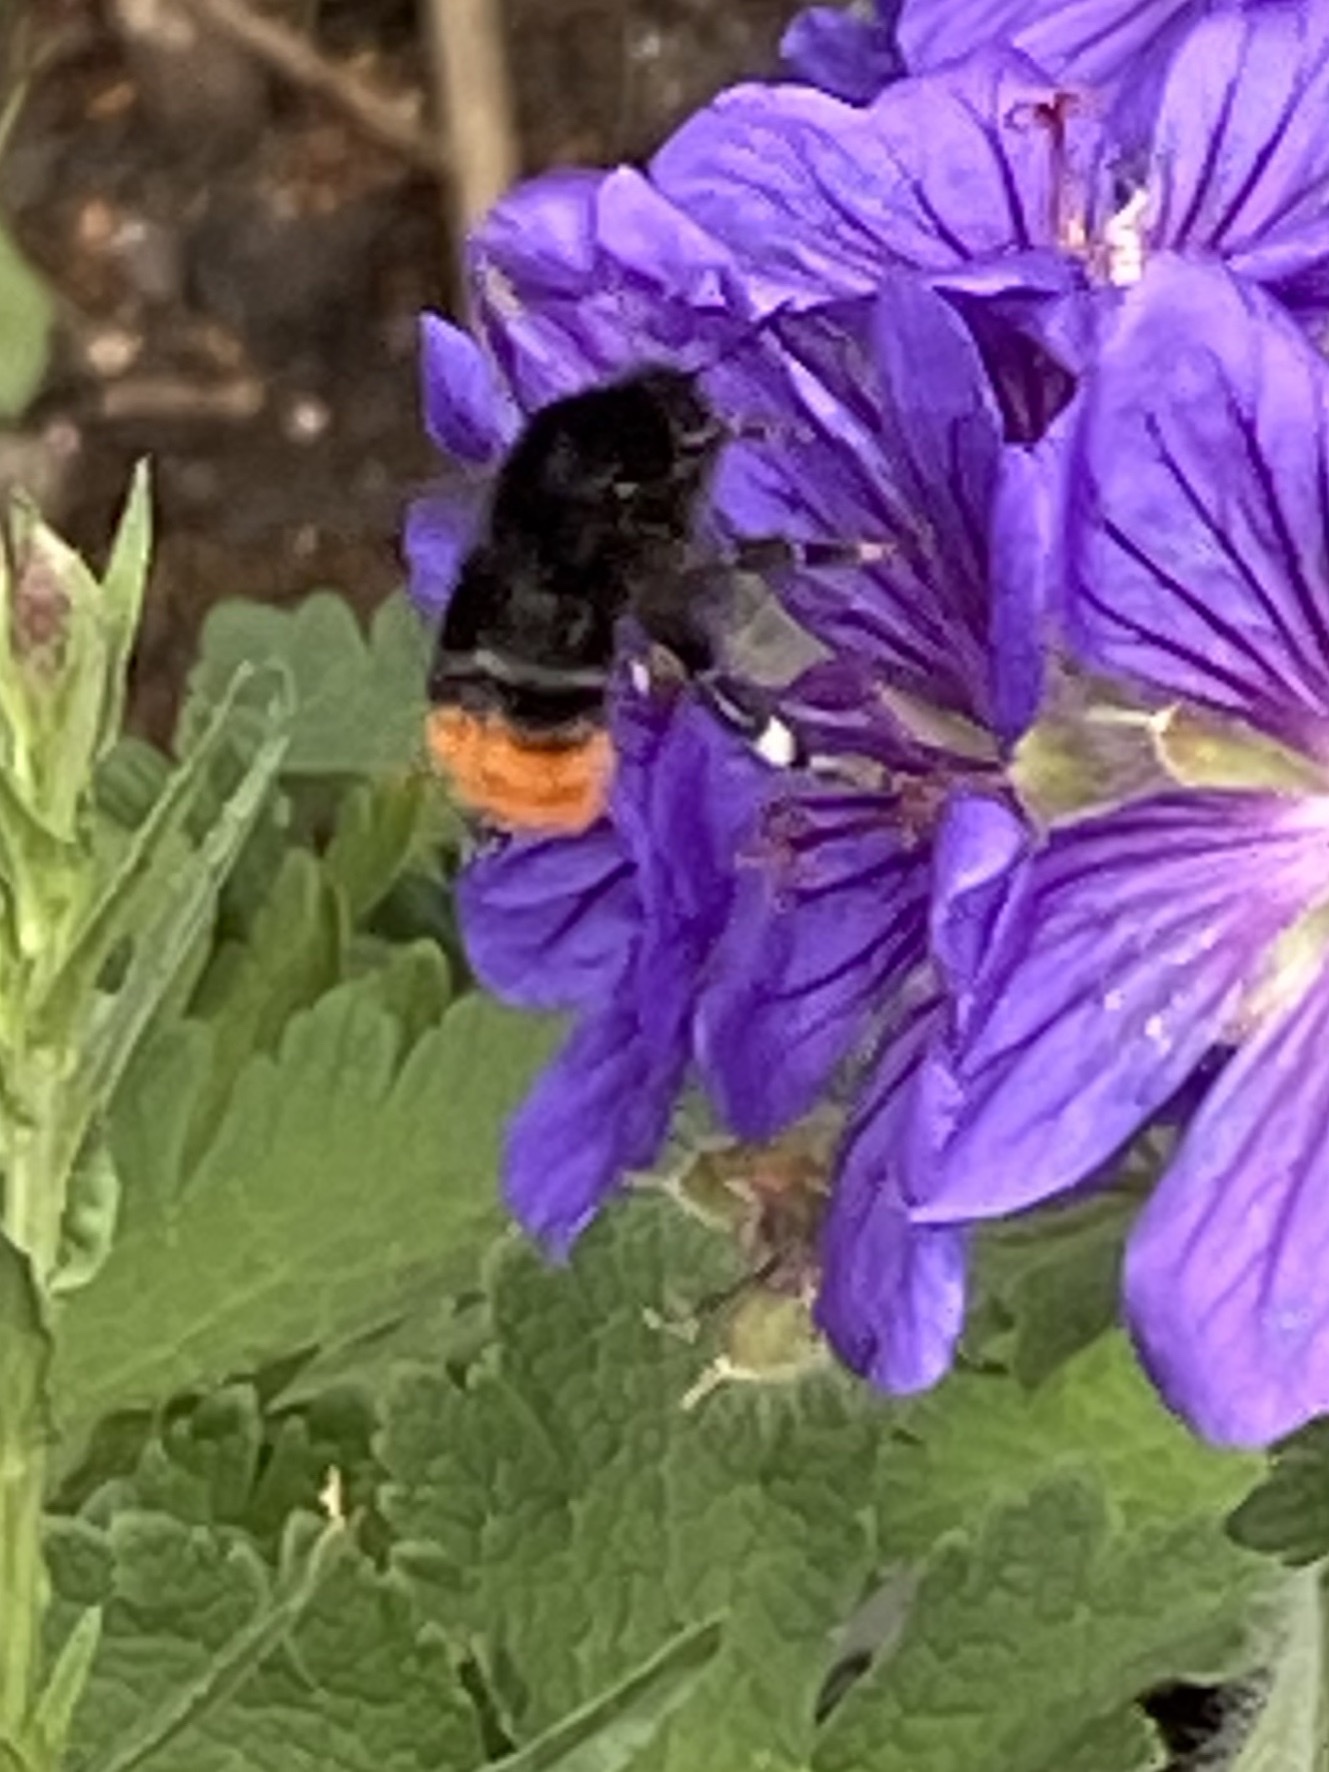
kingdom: Animalia
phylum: Arthropoda
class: Insecta
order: Hymenoptera
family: Apidae
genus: Bombus
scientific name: Bombus lapidarius
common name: Large red-tailed humble-bee
